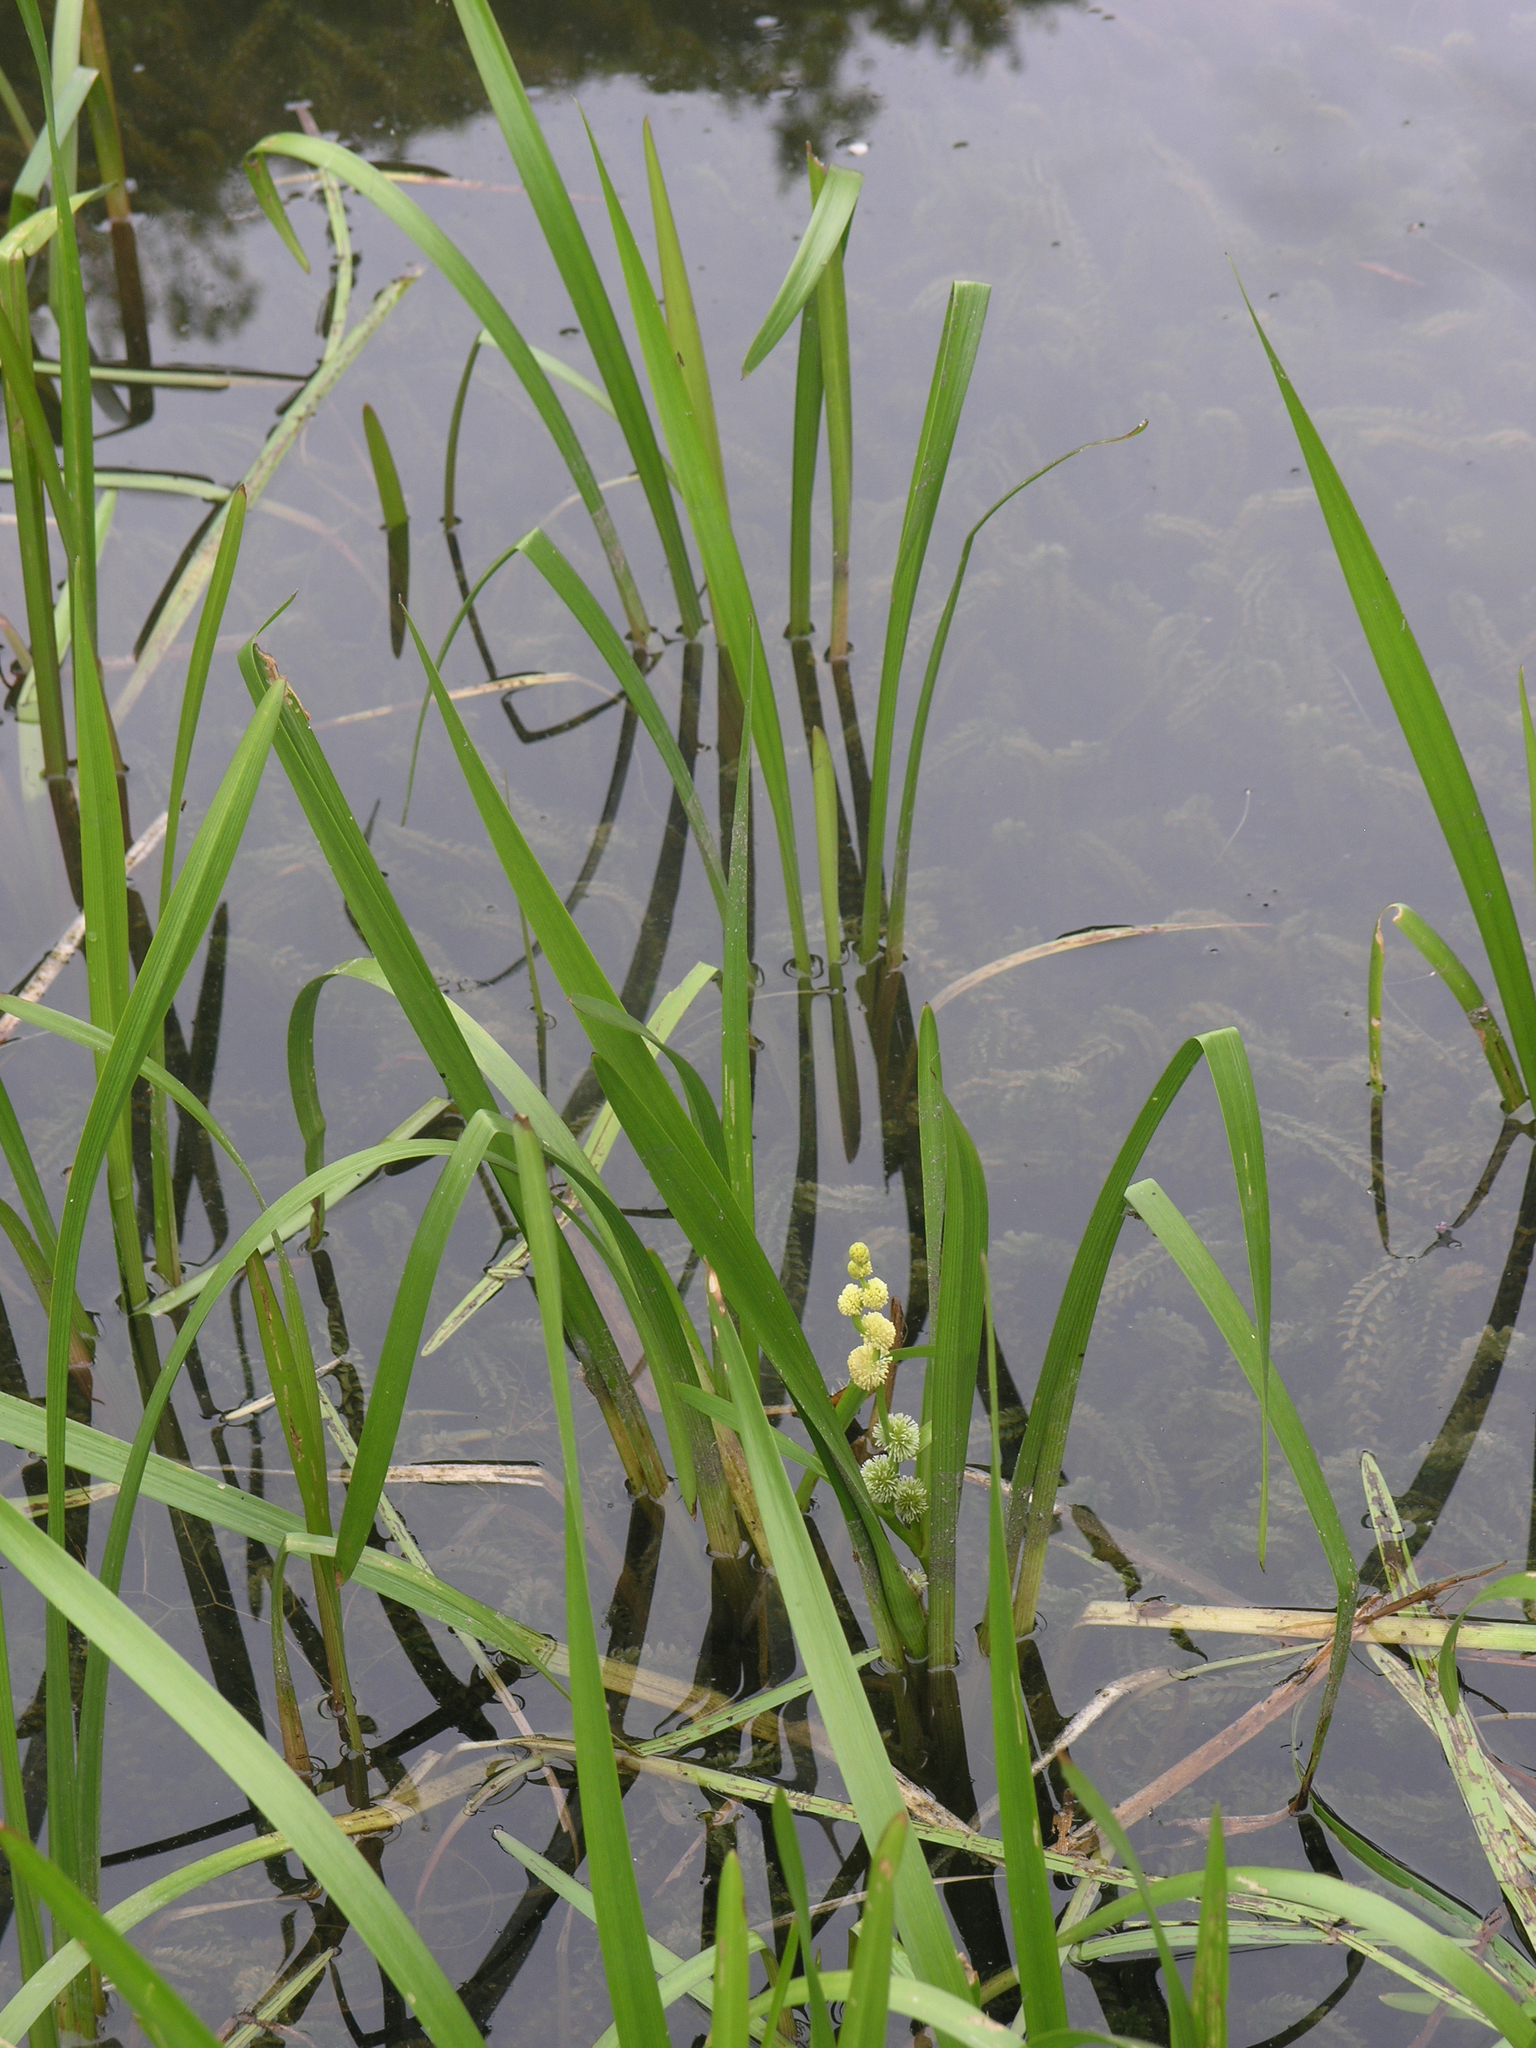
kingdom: Plantae
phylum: Tracheophyta
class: Liliopsida
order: Poales
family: Typhaceae
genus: Sparganium
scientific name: Sparganium emersum
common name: Unbranched bur-reed
